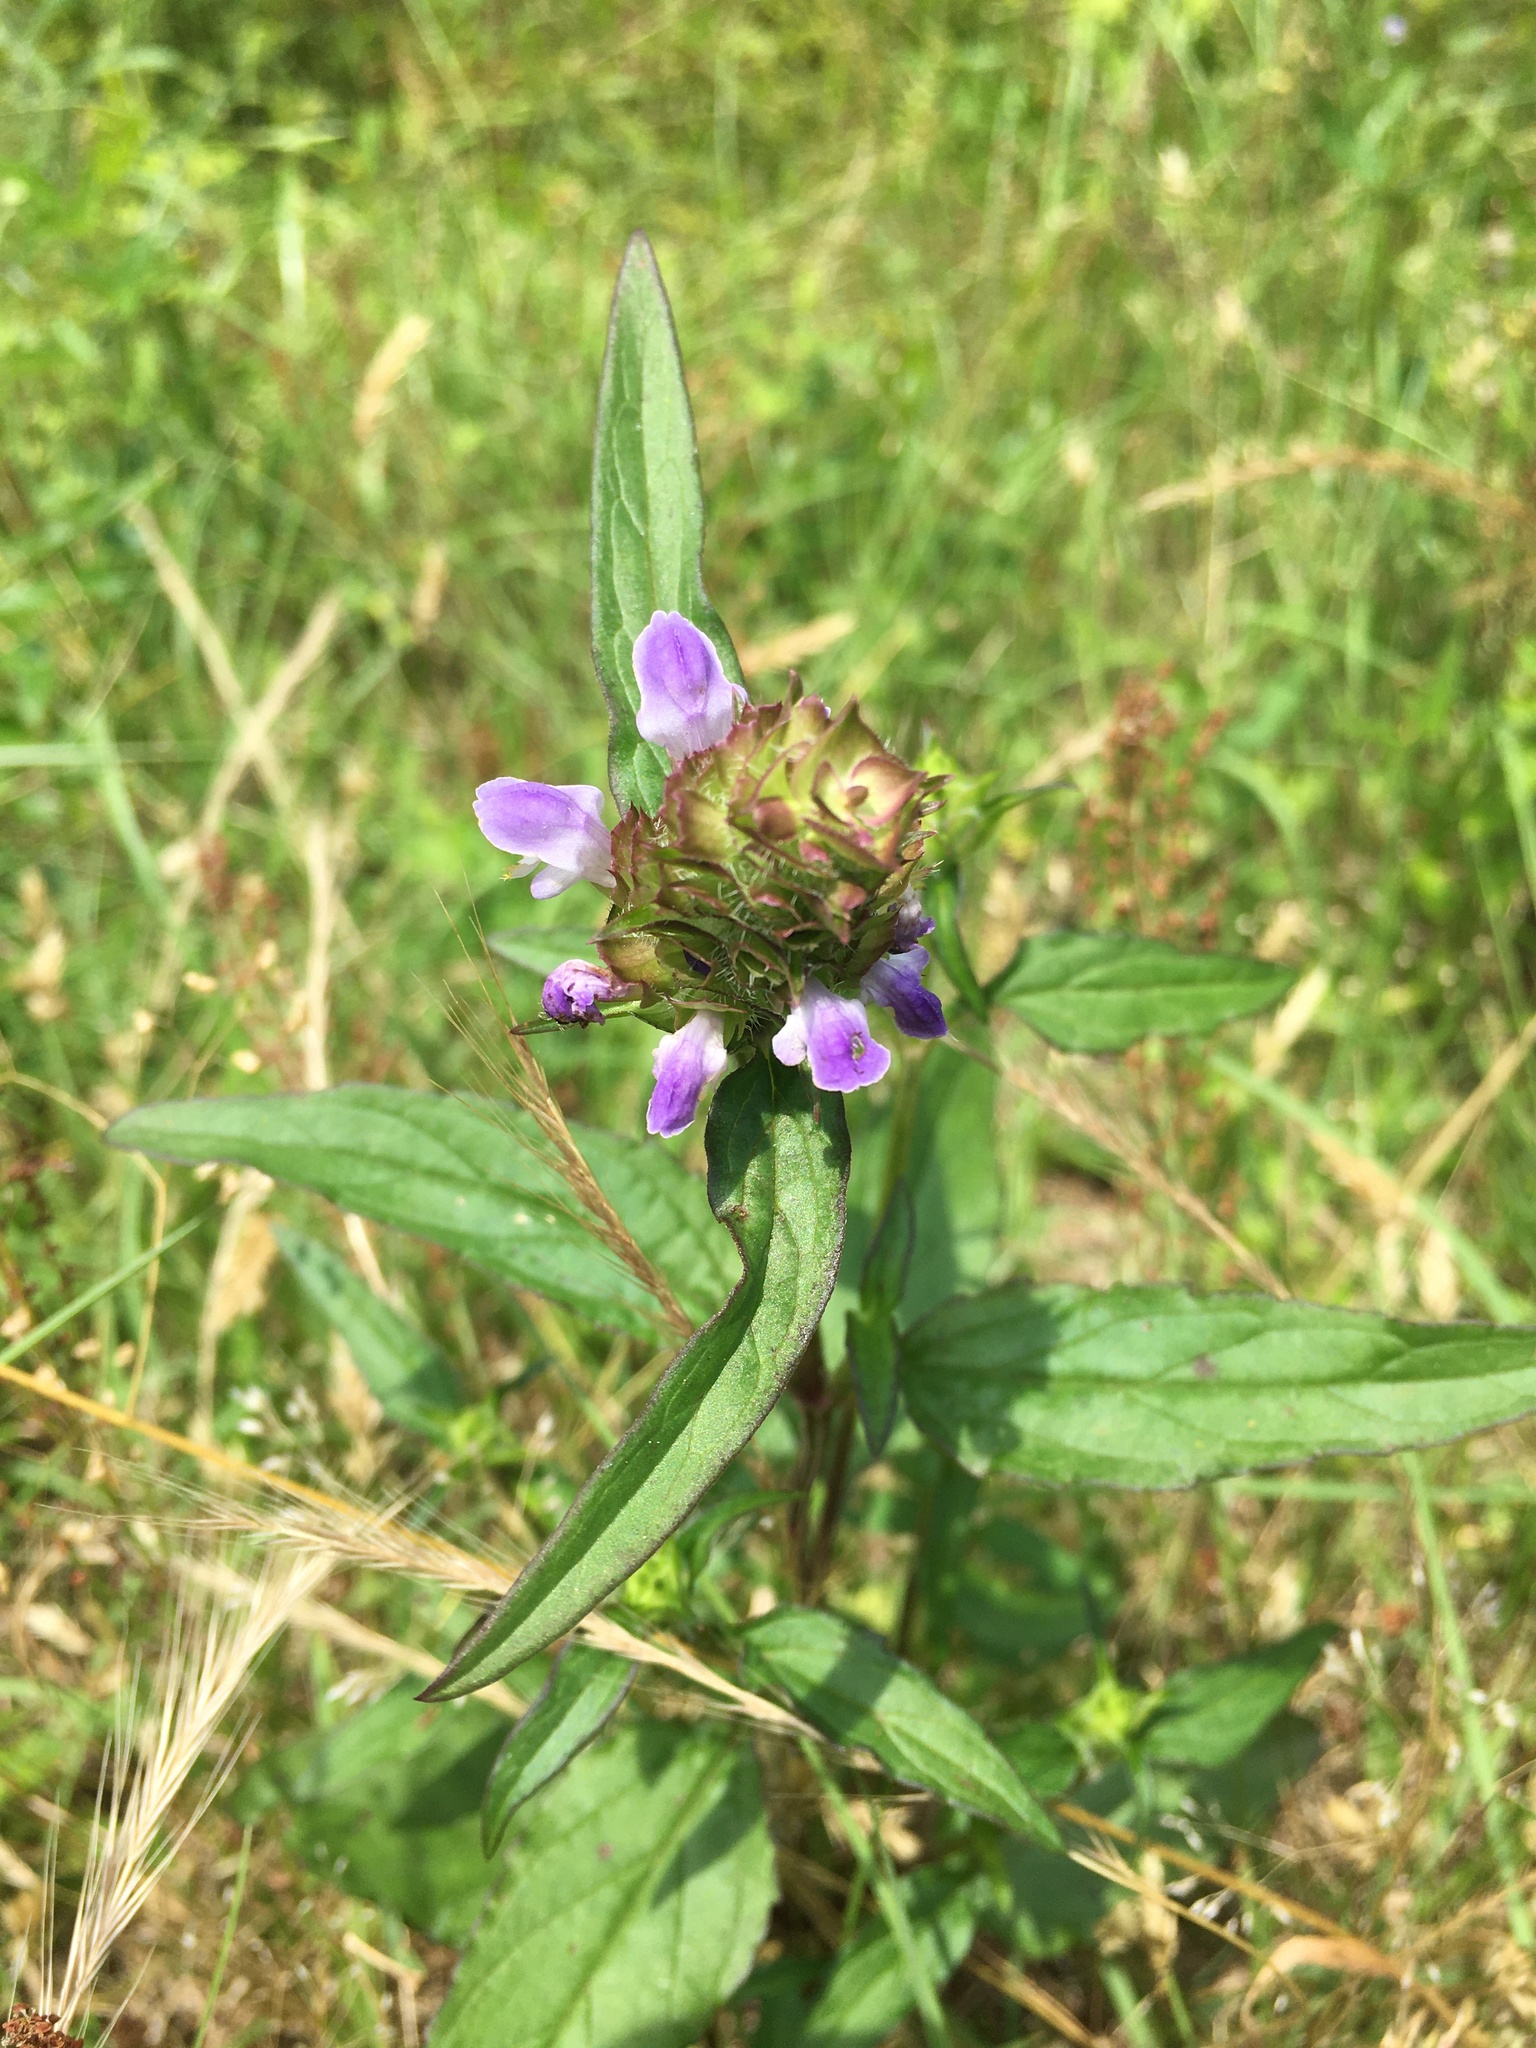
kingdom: Plantae
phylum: Tracheophyta
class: Magnoliopsida
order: Lamiales
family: Lamiaceae
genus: Prunella
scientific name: Prunella vulgaris
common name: Heal-all
